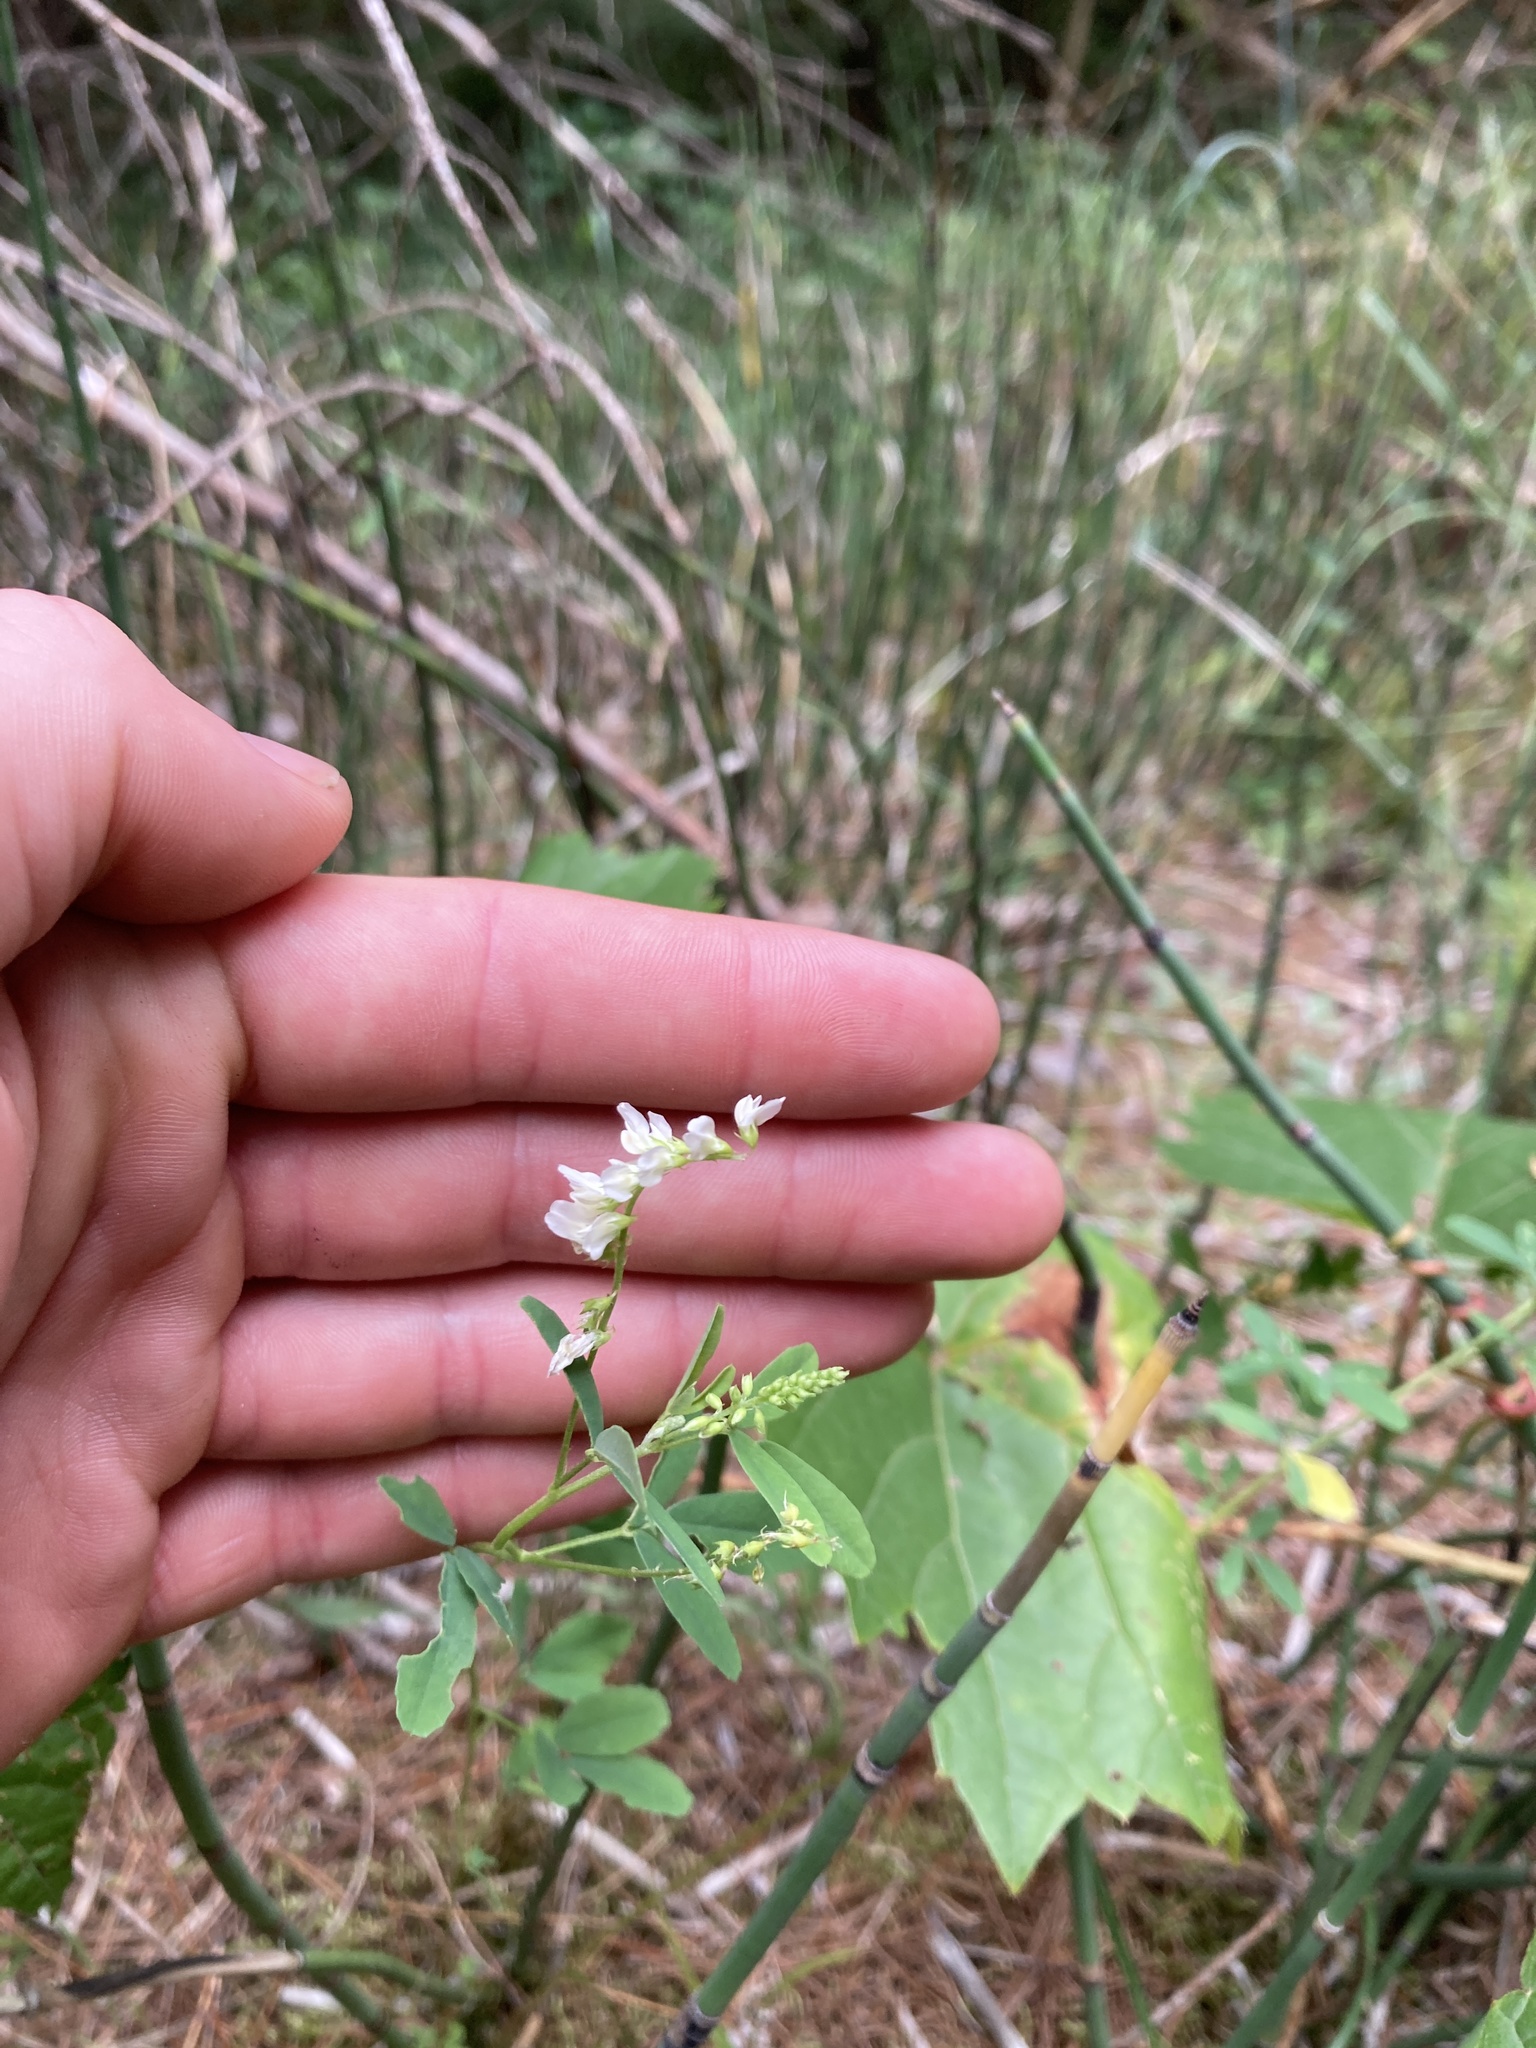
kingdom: Plantae
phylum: Tracheophyta
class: Magnoliopsida
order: Fabales
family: Fabaceae
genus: Melilotus
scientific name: Melilotus albus
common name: White melilot
